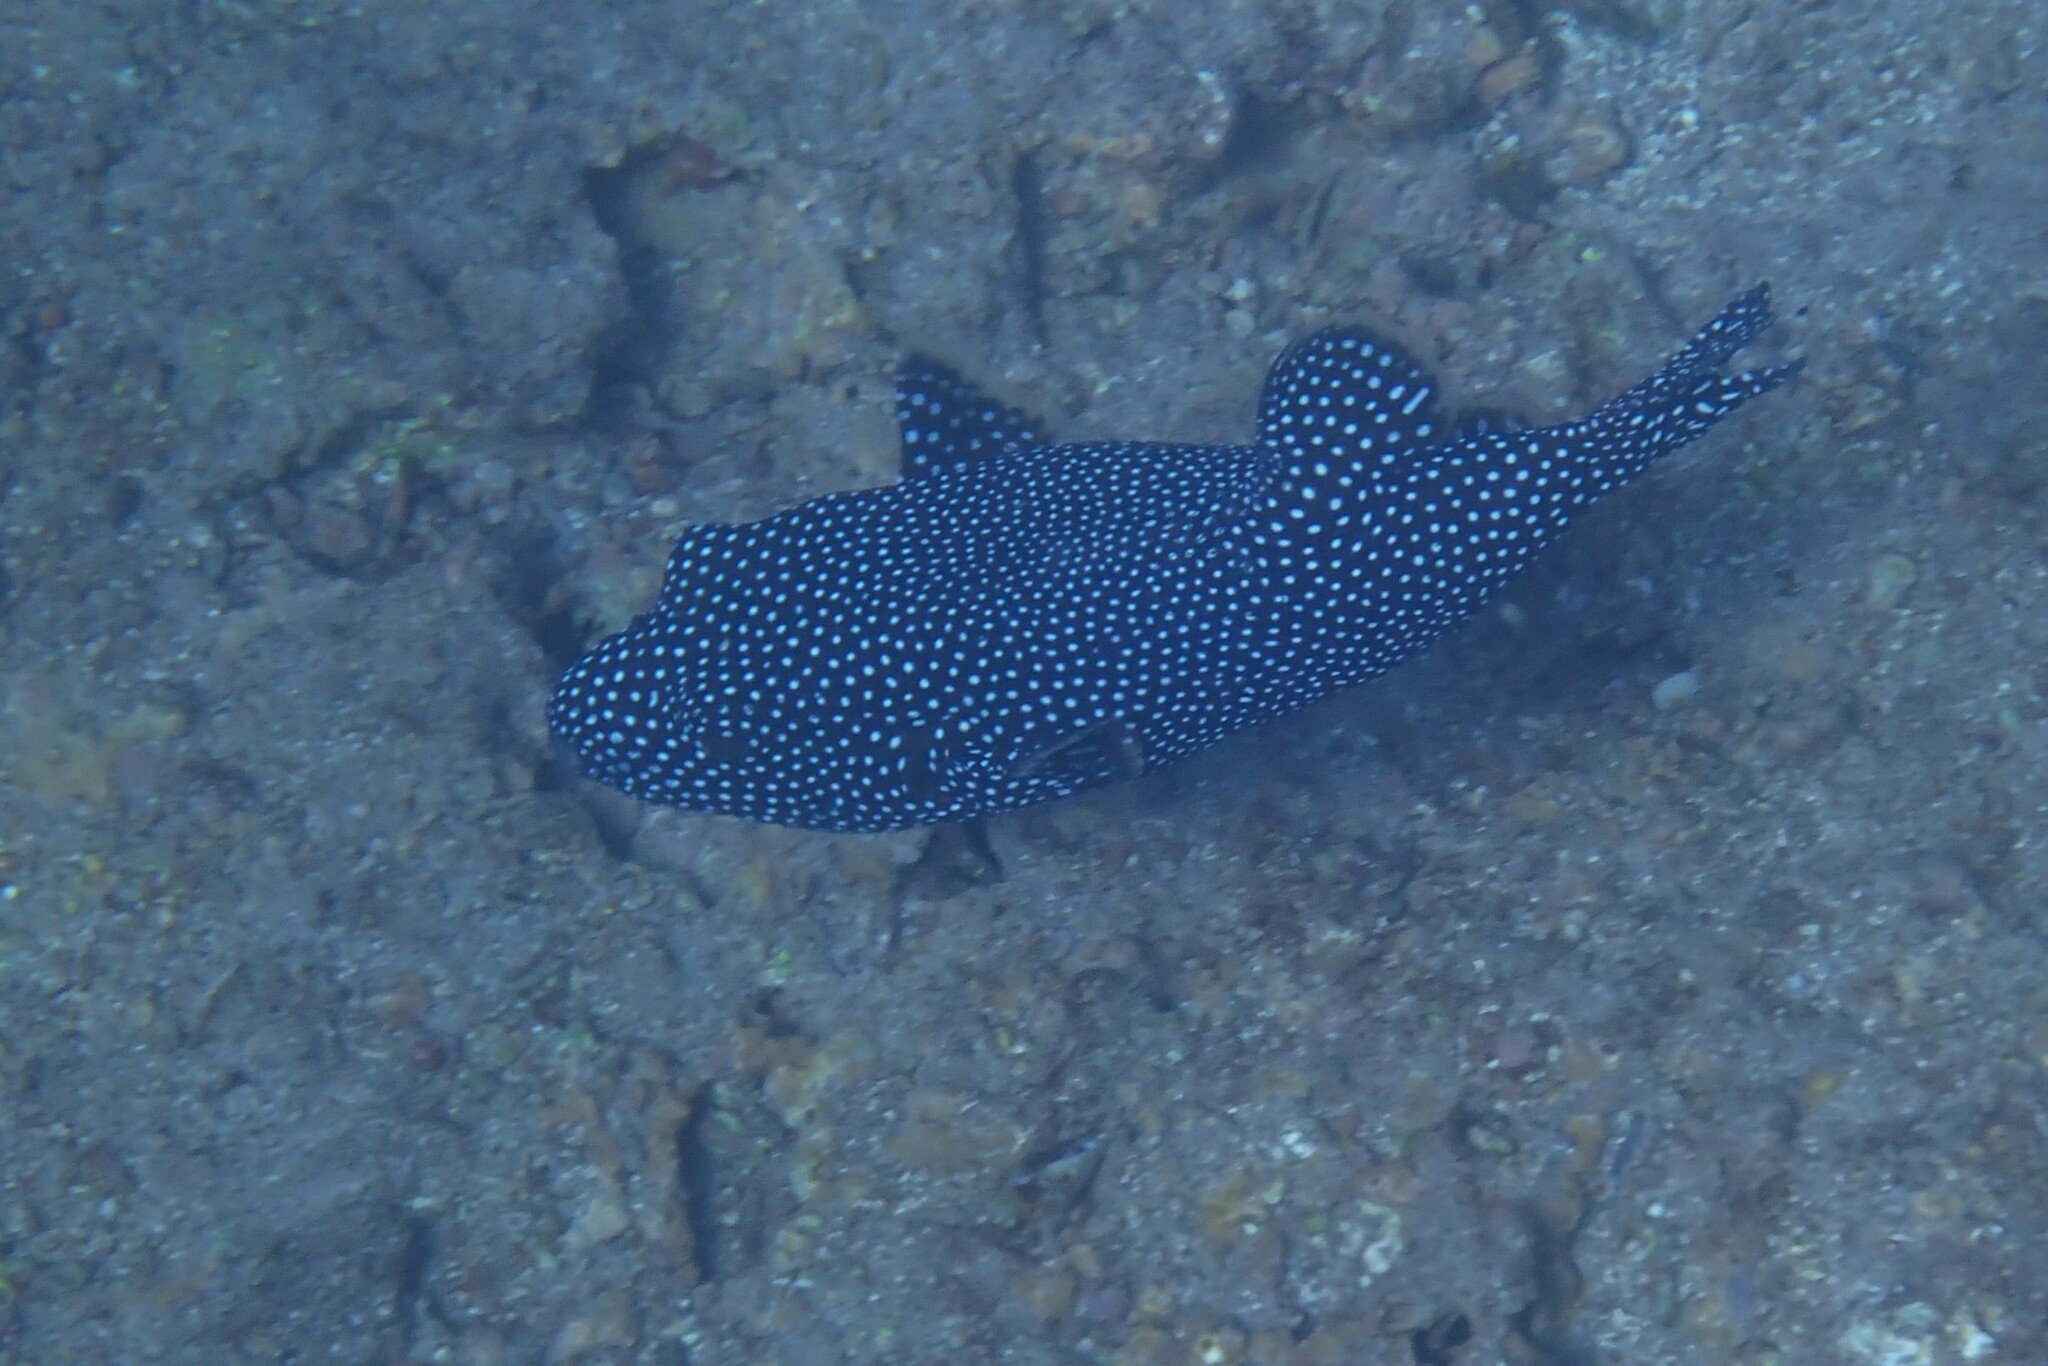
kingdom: Animalia
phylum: Chordata
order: Tetraodontiformes
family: Tetraodontidae
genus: Arothron
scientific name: Arothron meleagris
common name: Guinea-fowl pufferfish
